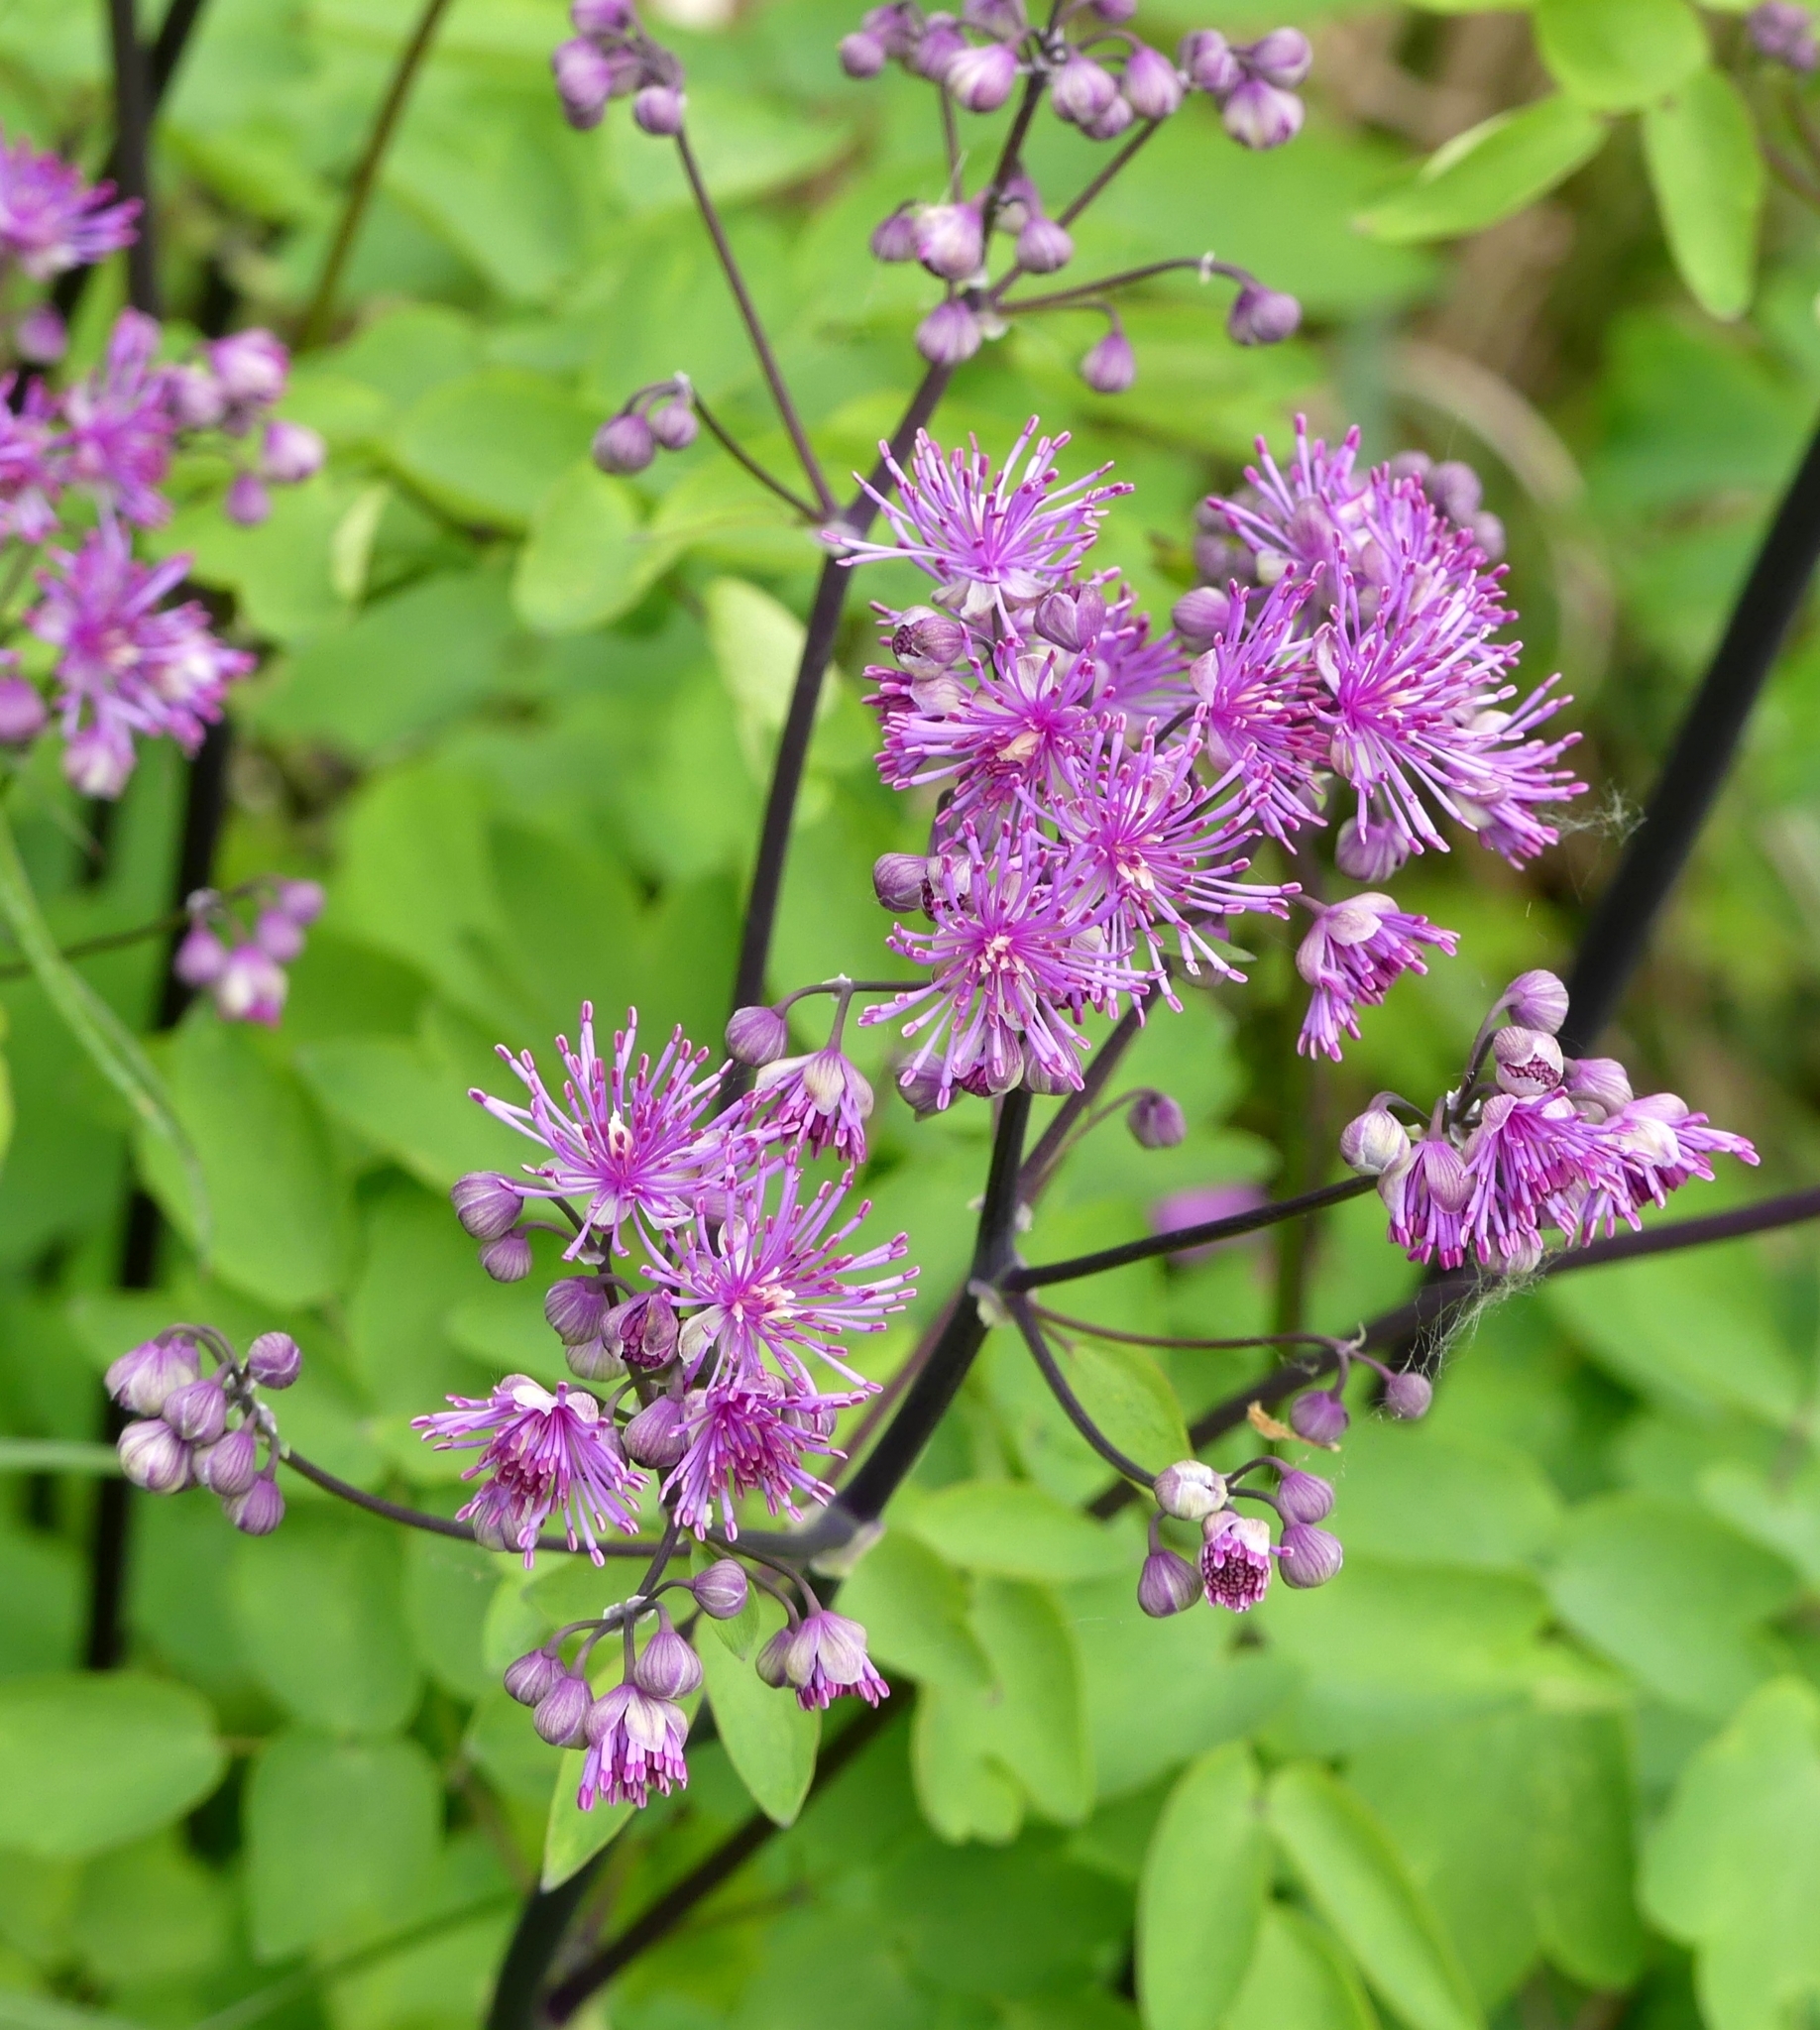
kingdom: Plantae
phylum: Tracheophyta
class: Magnoliopsida
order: Ranunculales
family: Ranunculaceae
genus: Thalictrum
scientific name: Thalictrum aquilegiifolium
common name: French meadow-rue
